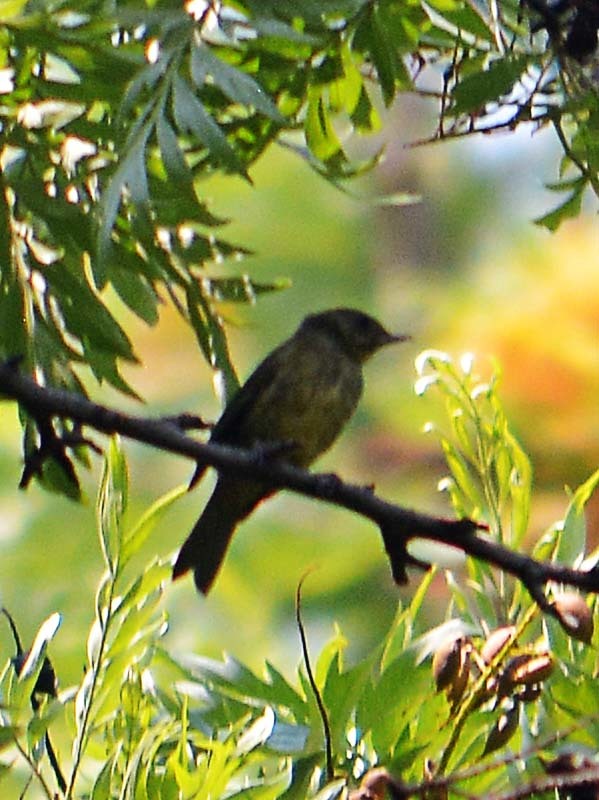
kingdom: Animalia
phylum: Chordata
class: Aves
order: Passeriformes
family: Thraupidae
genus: Diglossa
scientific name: Diglossa baritula
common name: Cinnamon-bellied flowerpiercer
